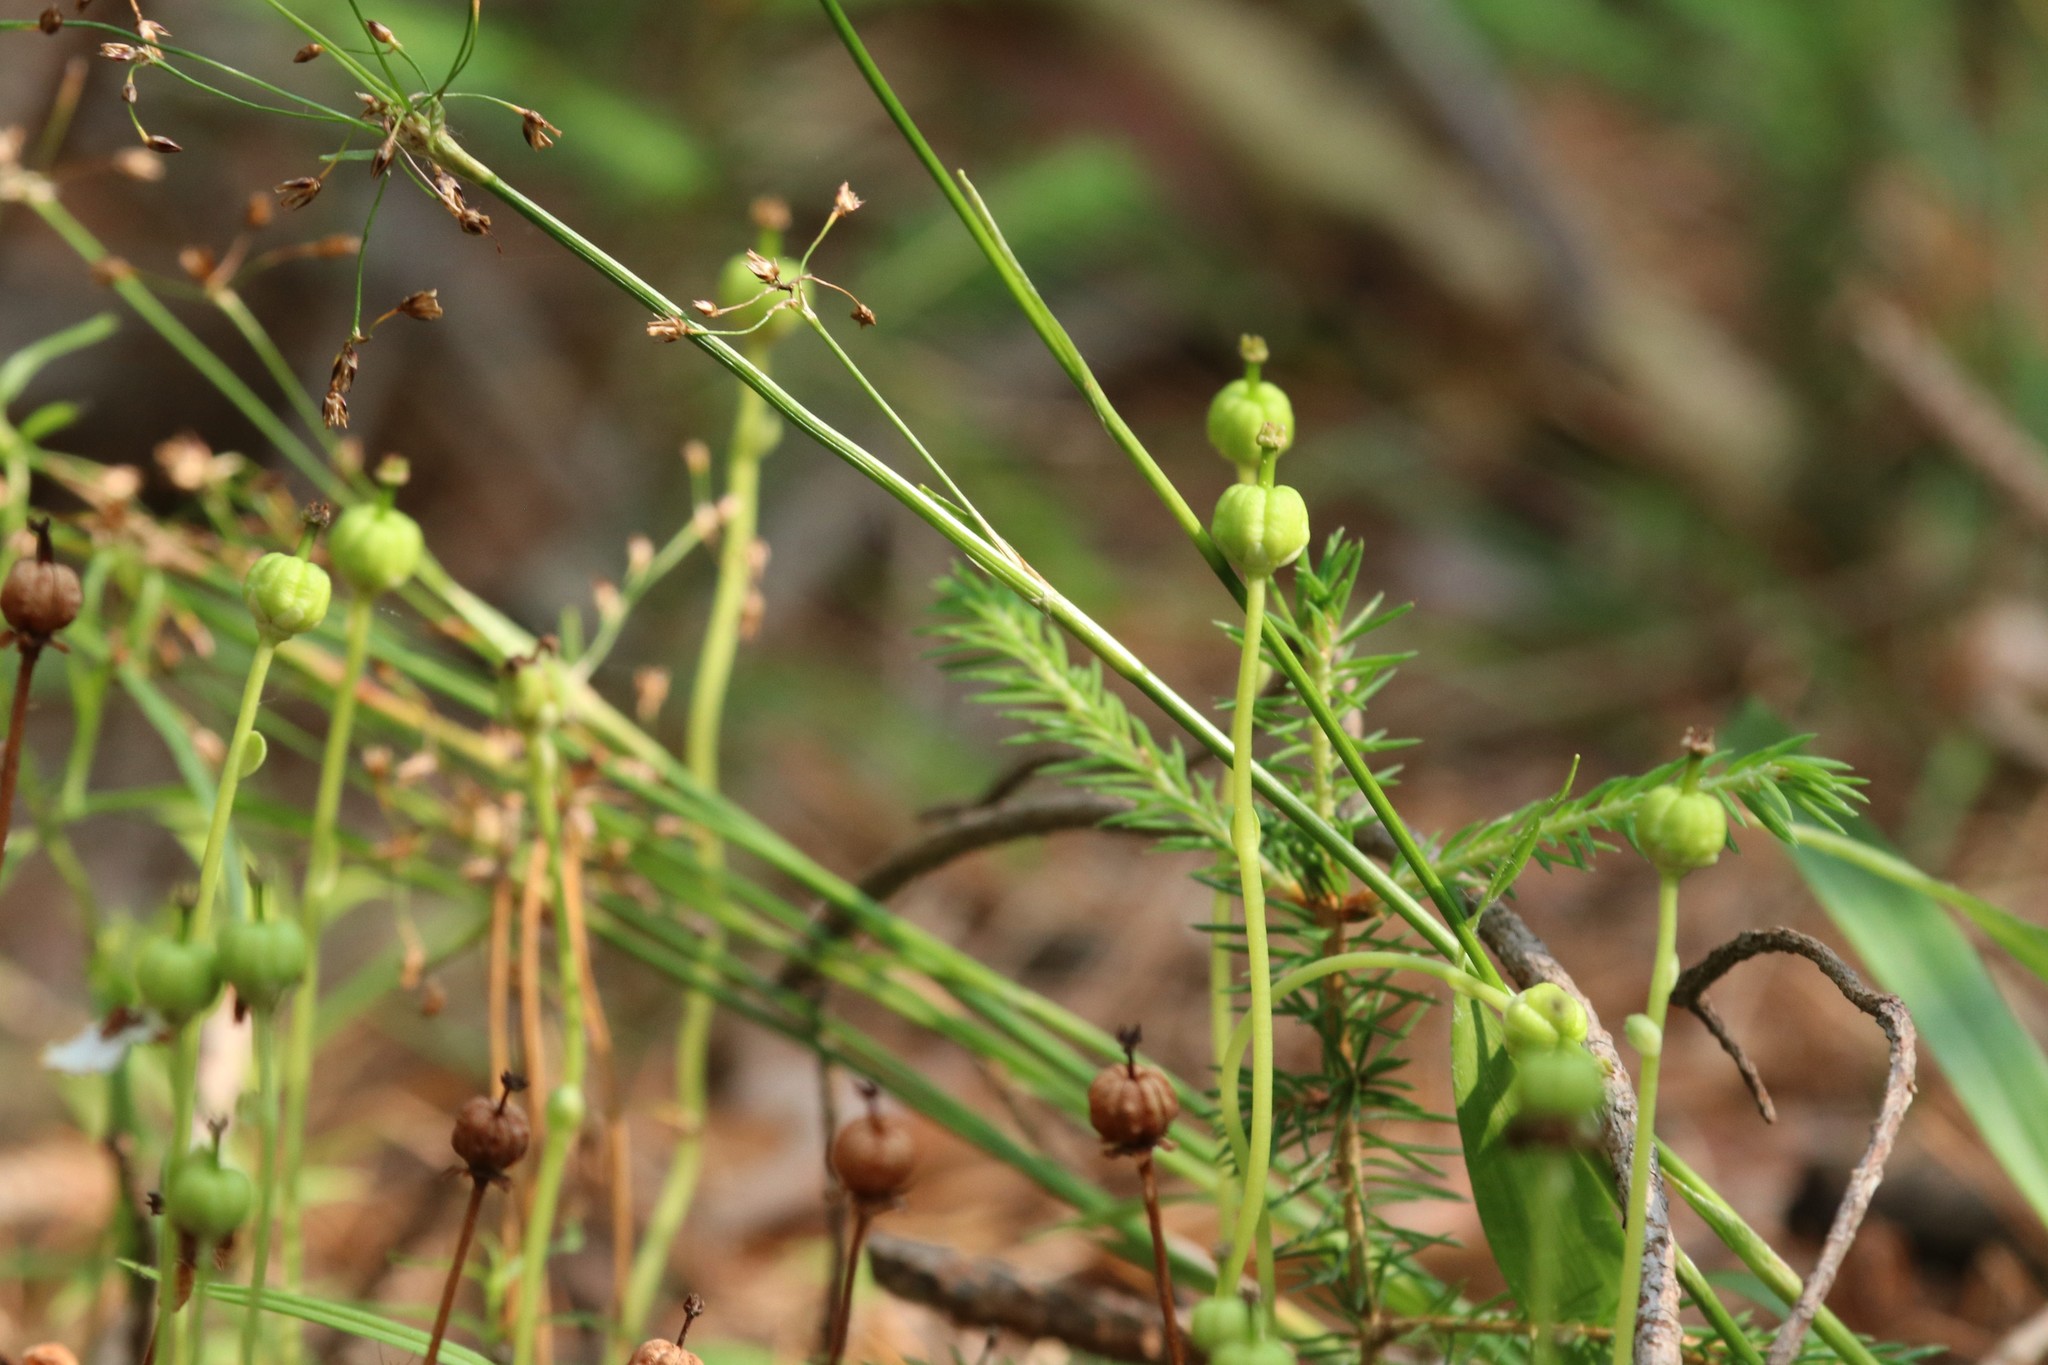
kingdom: Plantae
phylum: Tracheophyta
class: Magnoliopsida
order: Ericales
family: Ericaceae
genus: Moneses
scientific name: Moneses uniflora
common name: One-flowered wintergreen
